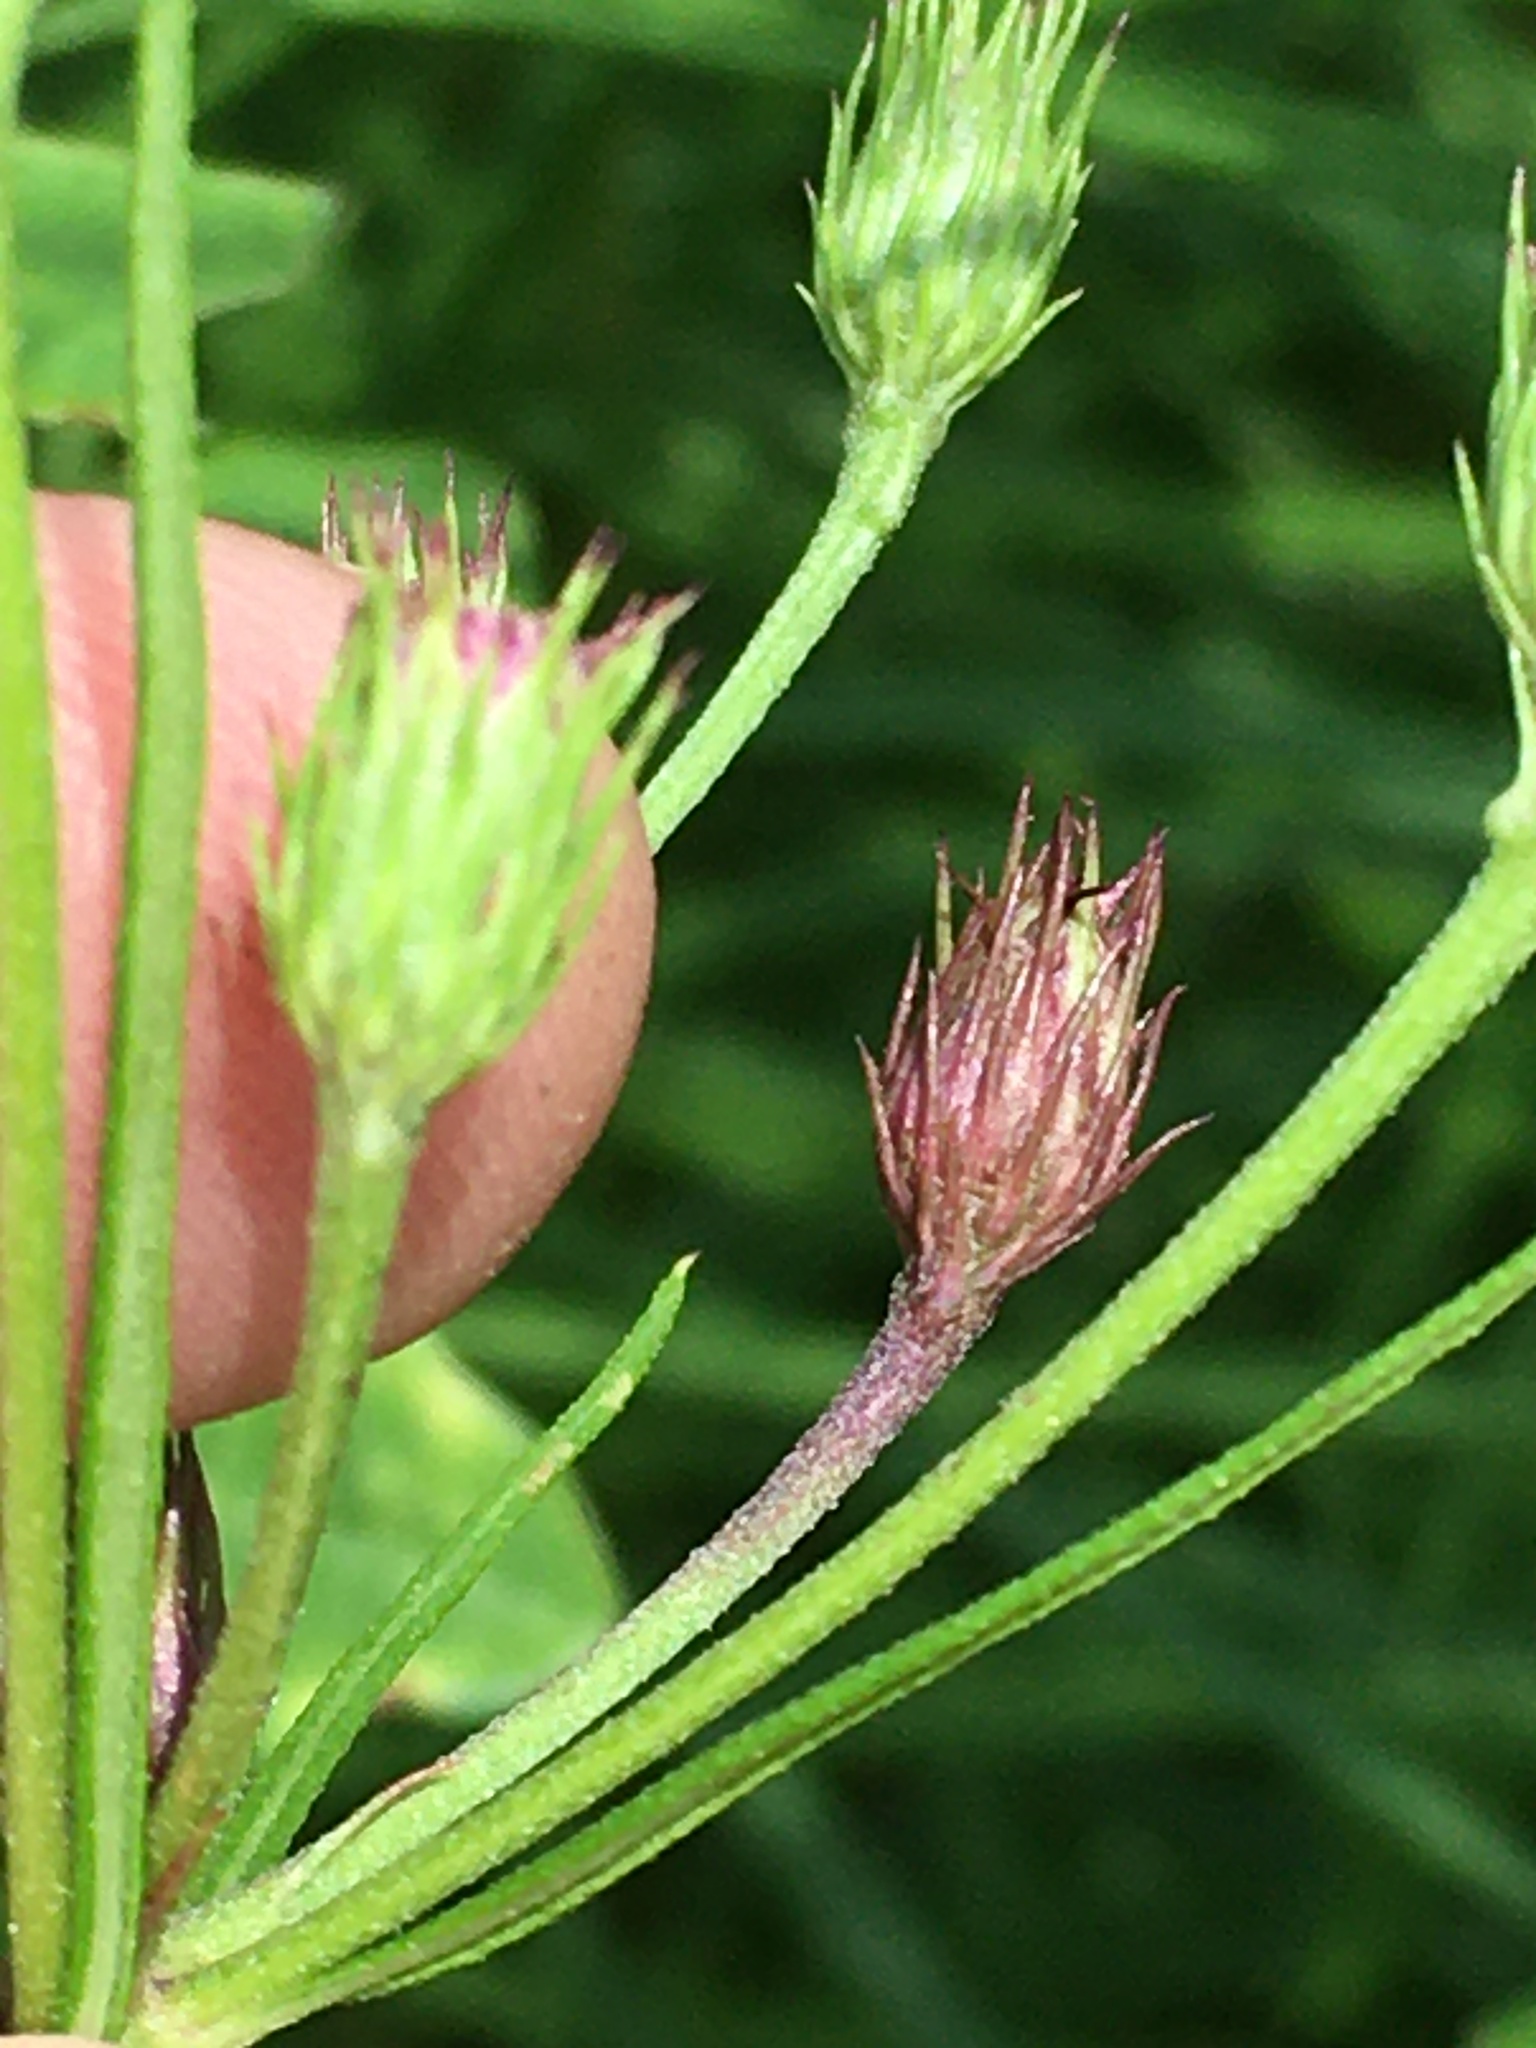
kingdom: Plantae
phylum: Tracheophyta
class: Magnoliopsida
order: Asterales
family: Asteraceae
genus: Vernonia
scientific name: Vernonia angustifolia
